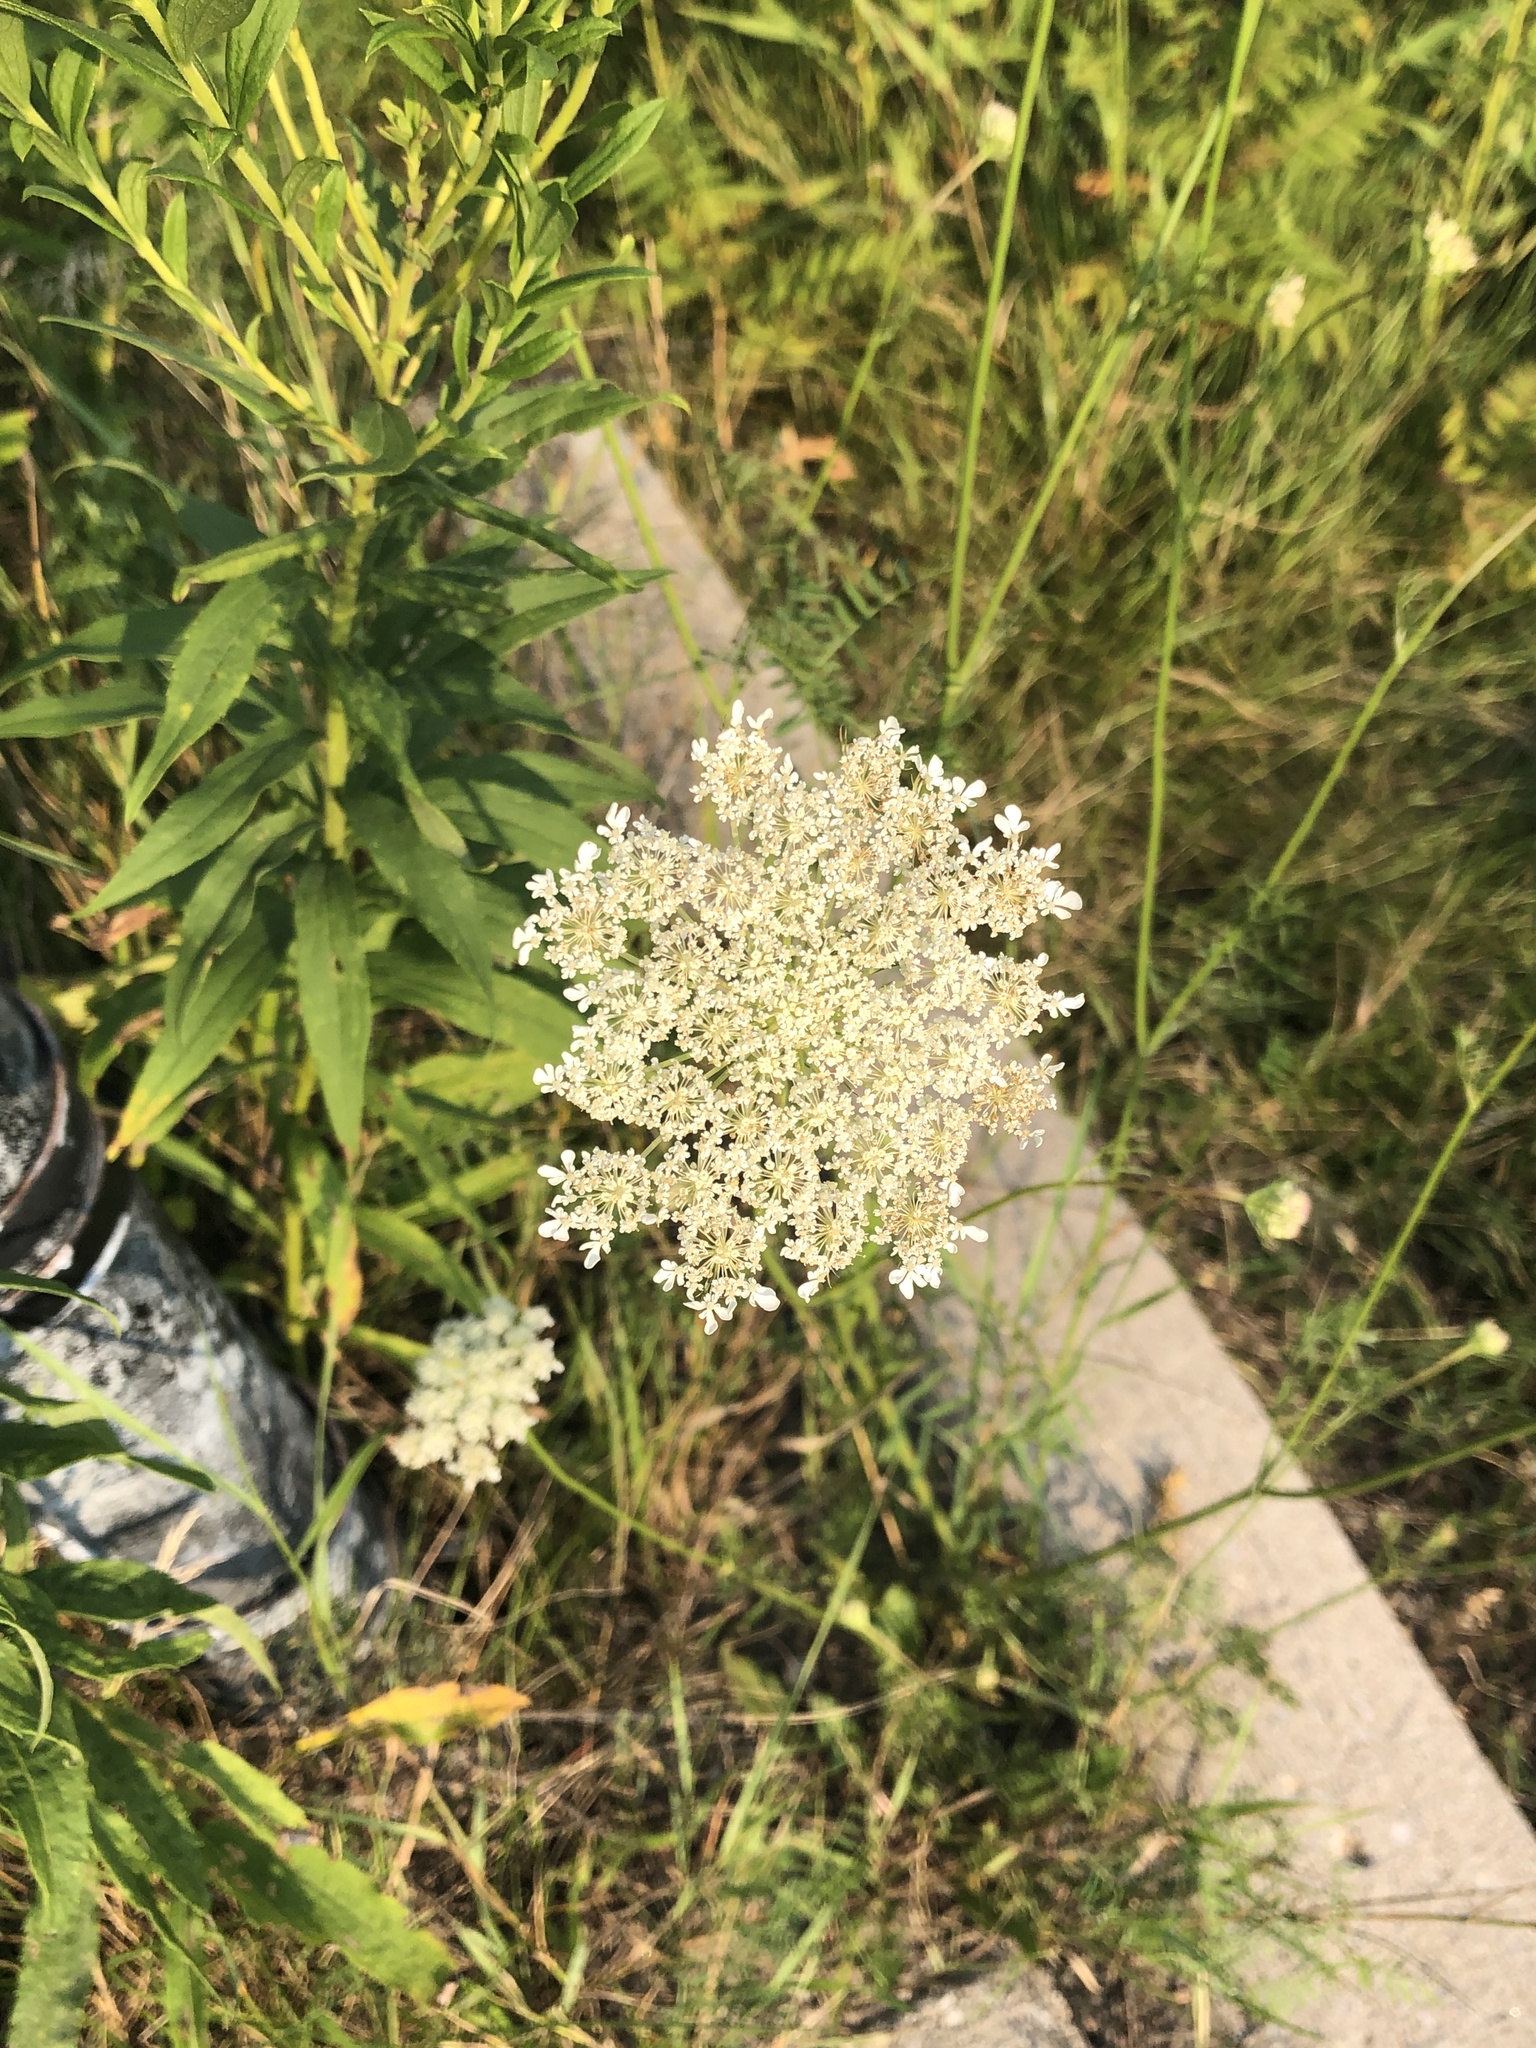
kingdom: Plantae
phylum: Tracheophyta
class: Magnoliopsida
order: Apiales
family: Apiaceae
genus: Daucus
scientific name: Daucus carota
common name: Wild carrot
